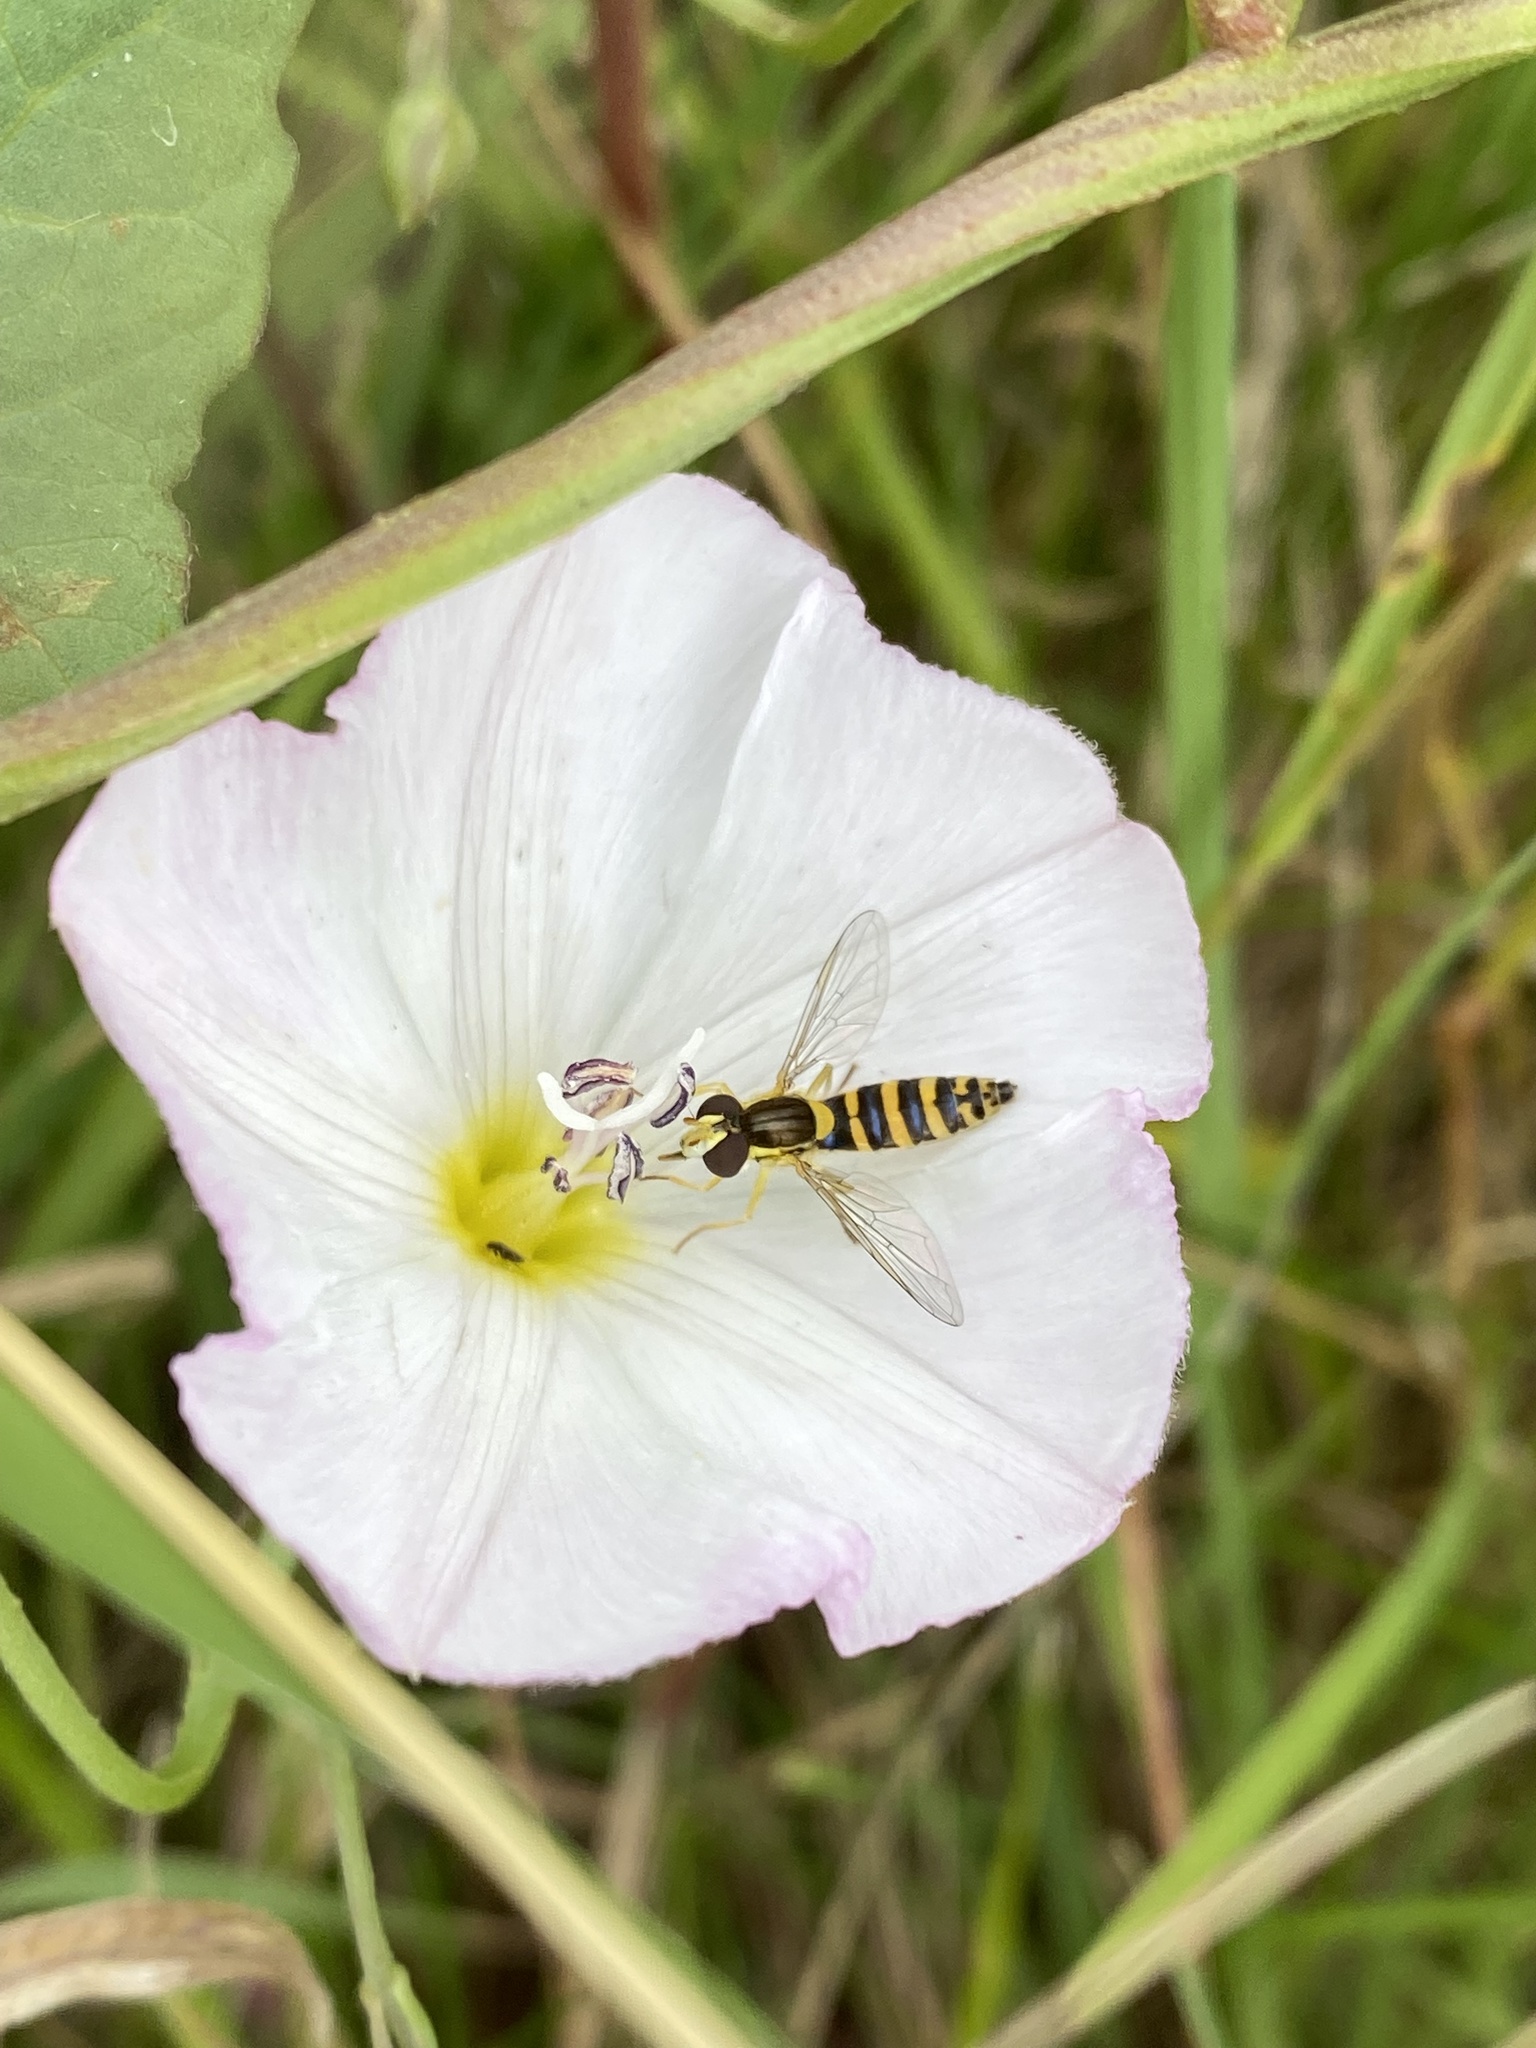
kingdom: Animalia
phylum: Arthropoda
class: Insecta
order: Diptera
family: Syrphidae
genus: Sphaerophoria
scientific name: Sphaerophoria
